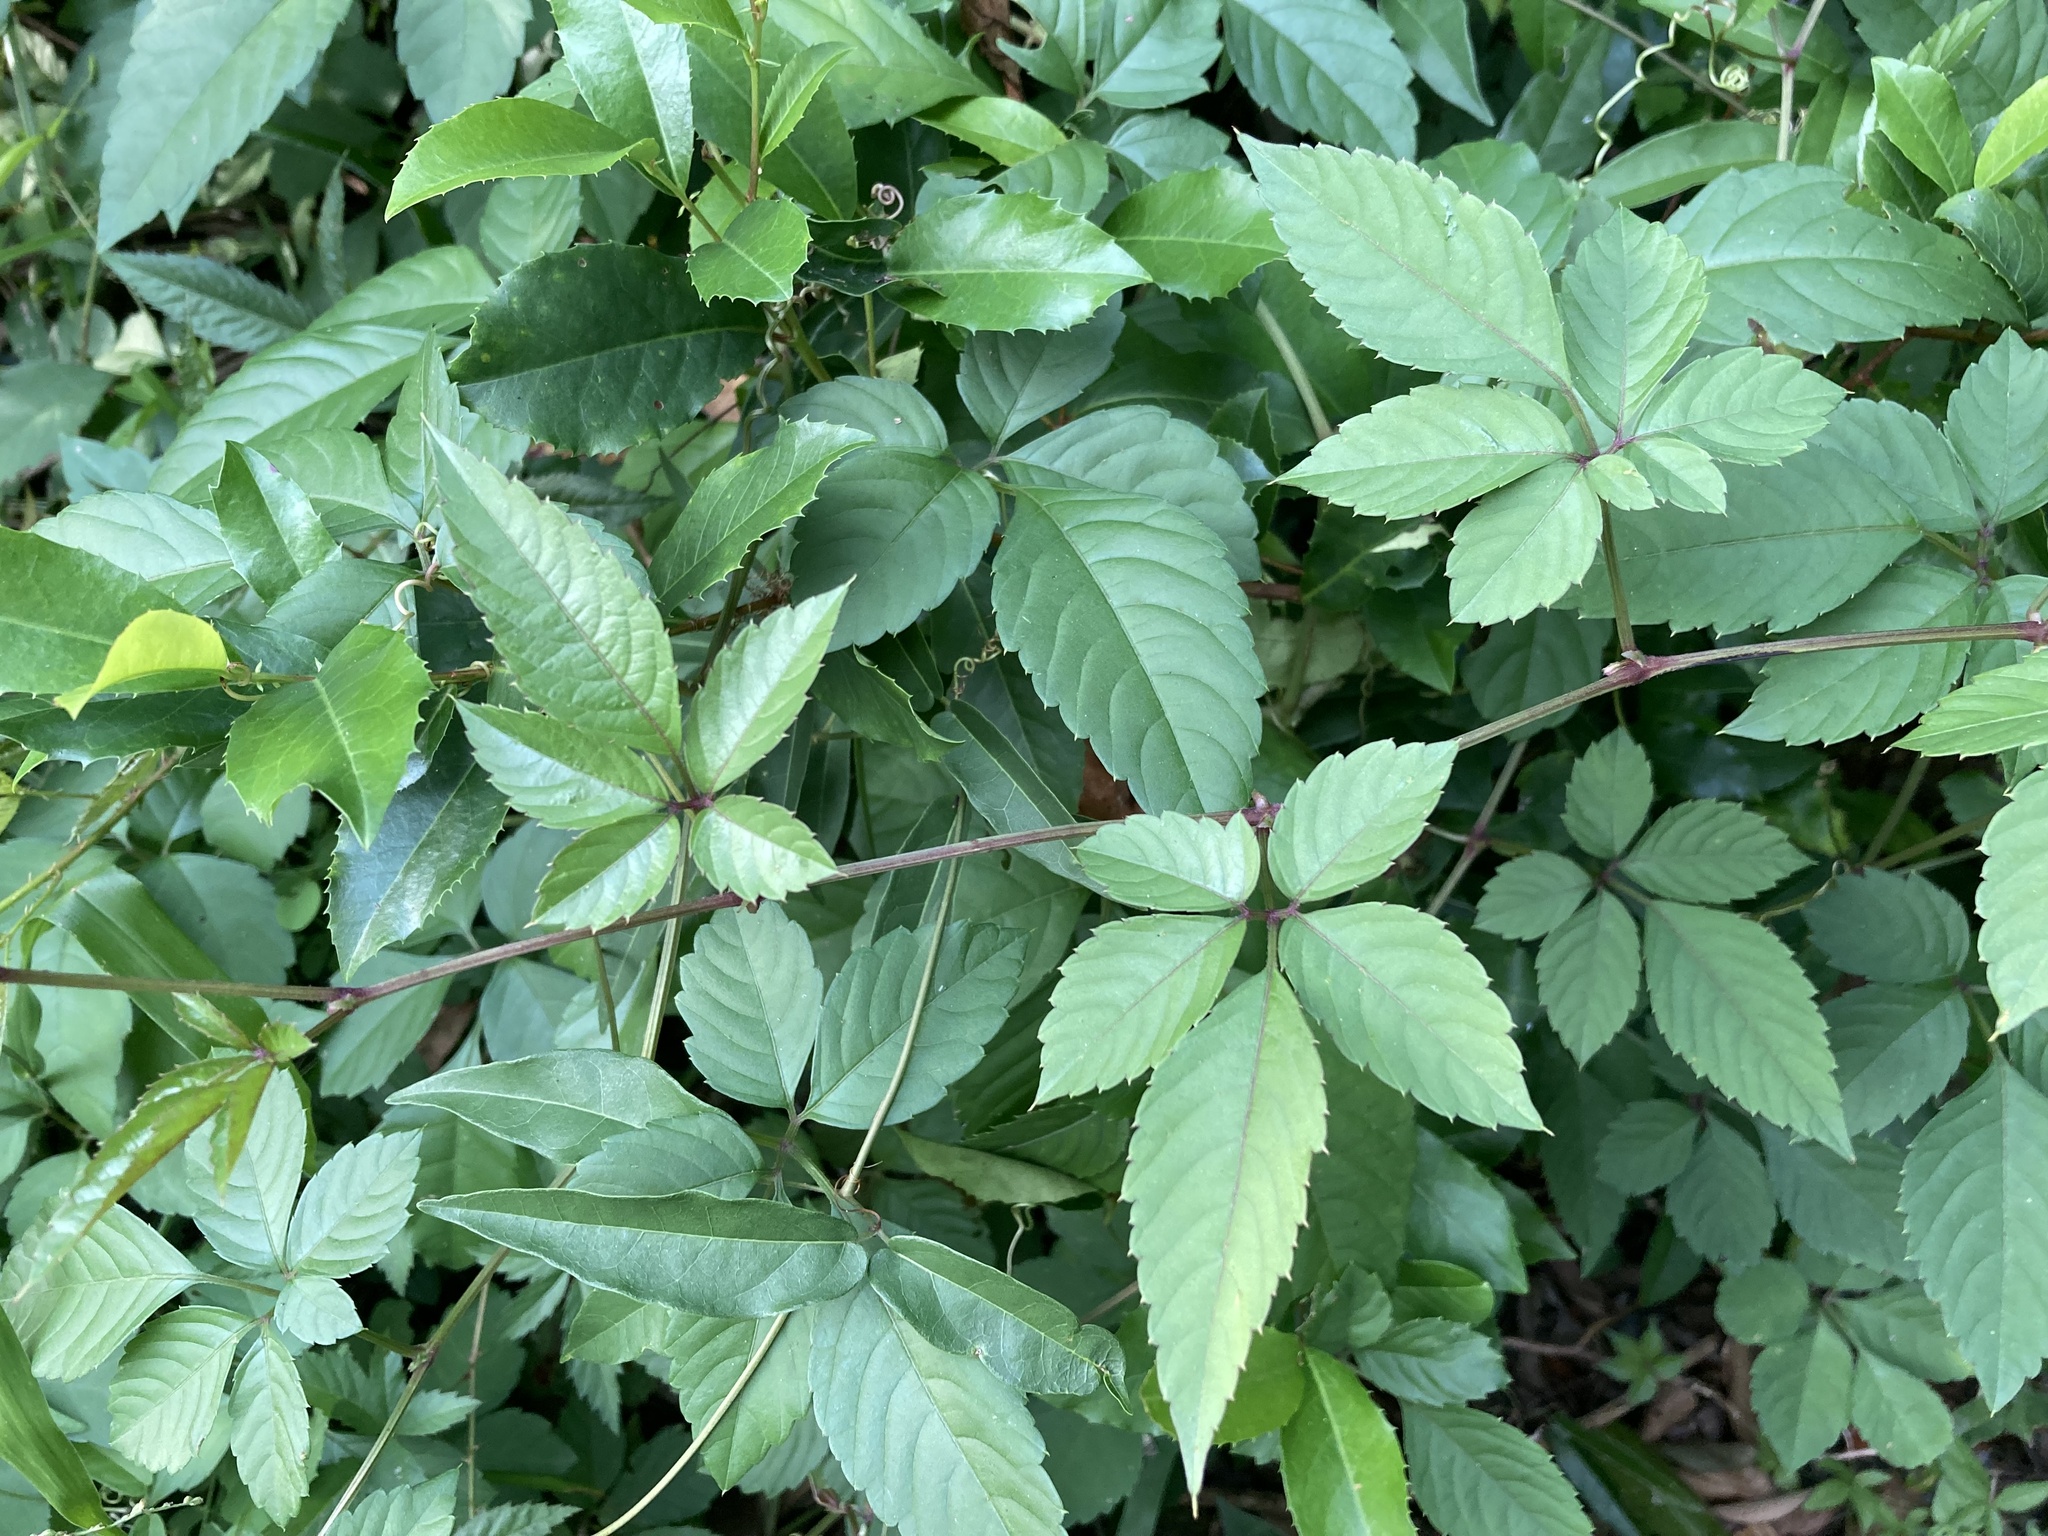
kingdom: Plantae
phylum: Tracheophyta
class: Magnoliopsida
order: Vitales
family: Vitaceae
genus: Causonis
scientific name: Causonis japonica
